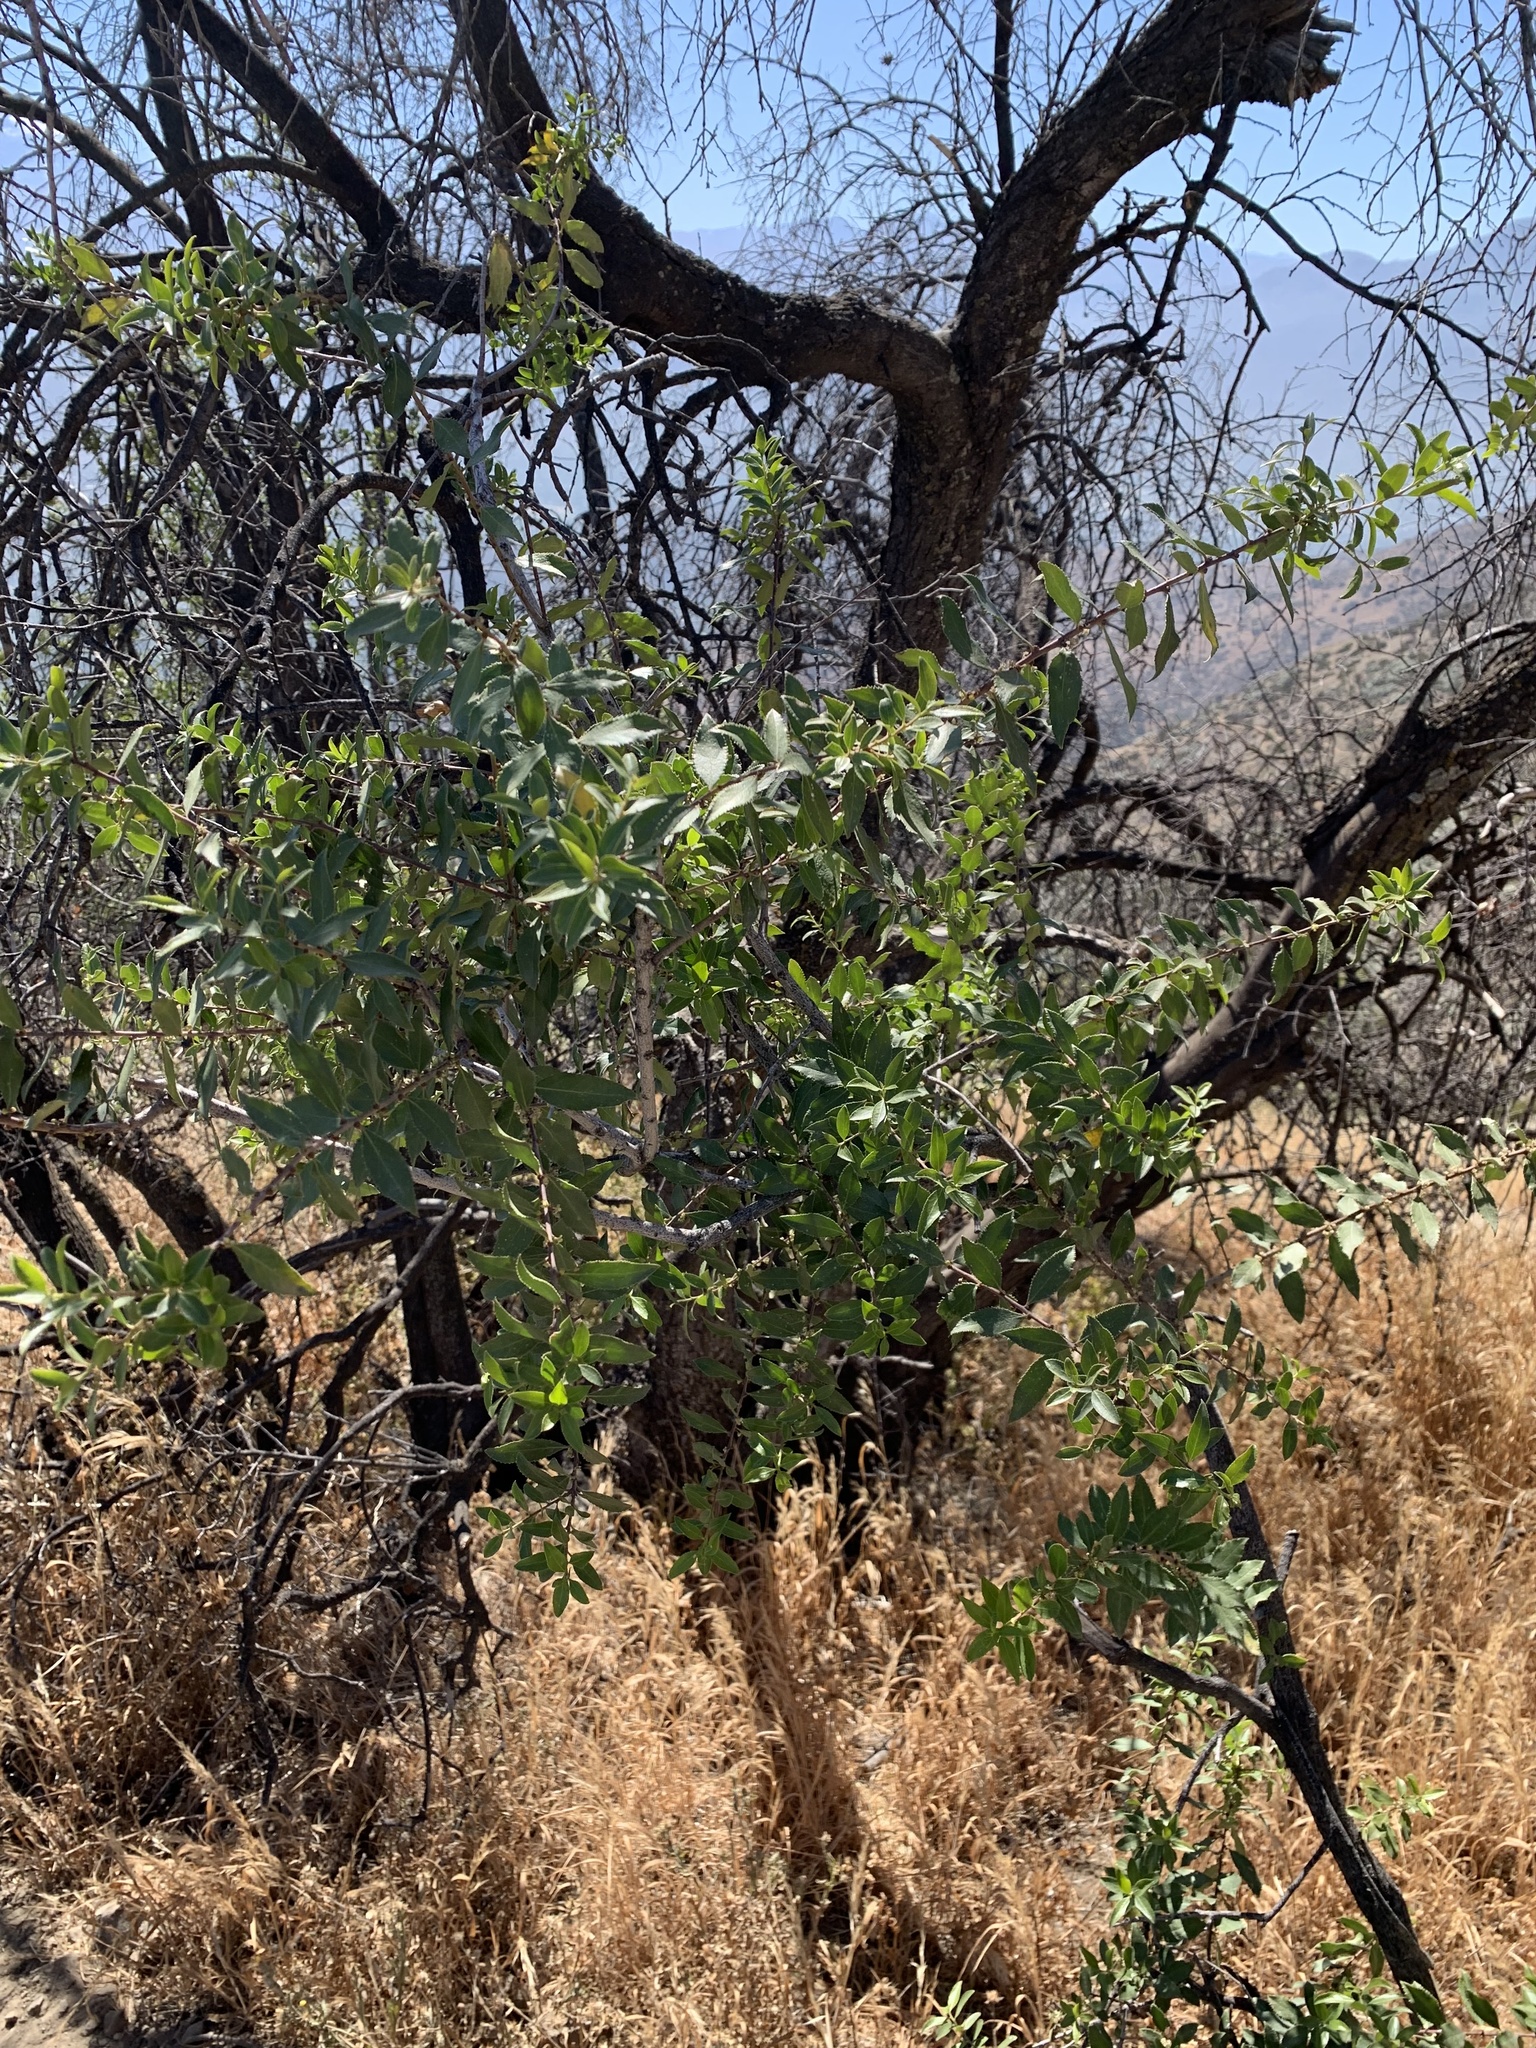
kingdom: Plantae
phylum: Tracheophyta
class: Magnoliopsida
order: Celastrales
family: Celastraceae
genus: Maytenus
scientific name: Maytenus boaria
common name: Mayten
